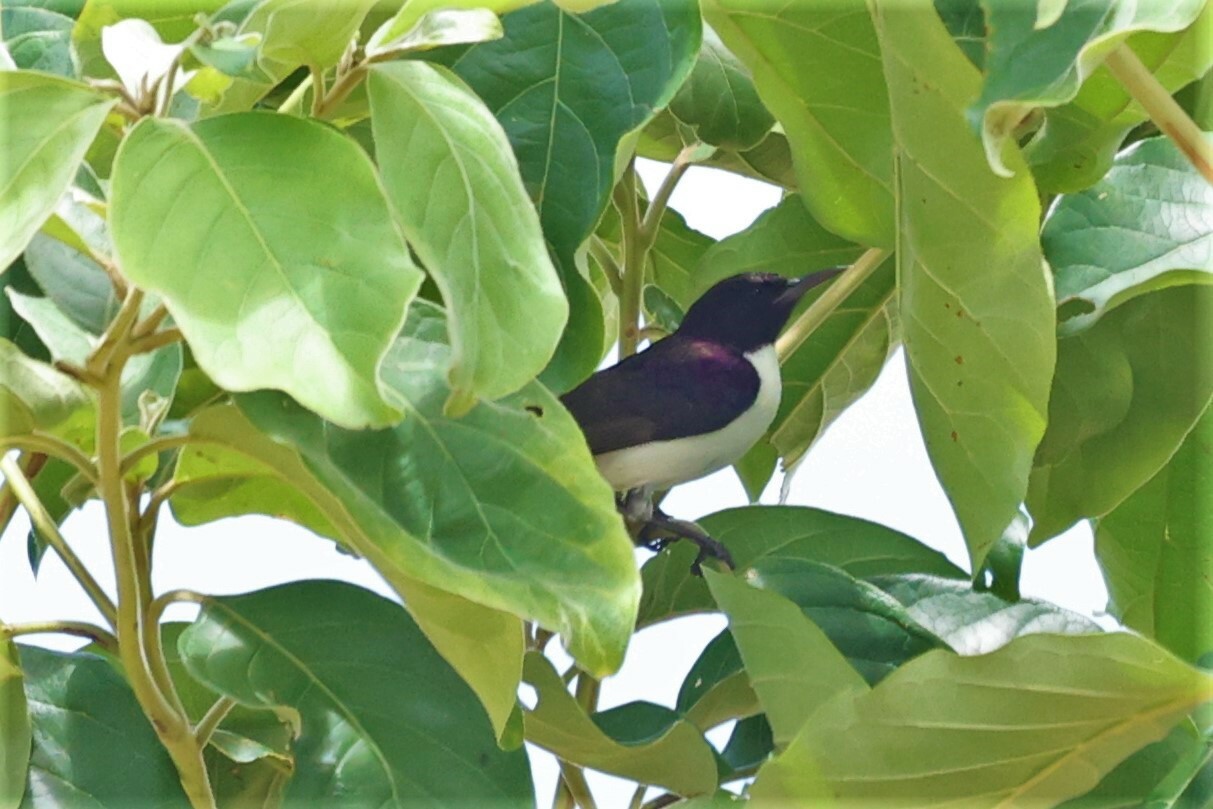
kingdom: Animalia
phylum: Chordata
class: Aves
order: Passeriformes
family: Nectariniidae
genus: Anthreptes
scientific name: Anthreptes longuemarei
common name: Western violet-backed sunbird
